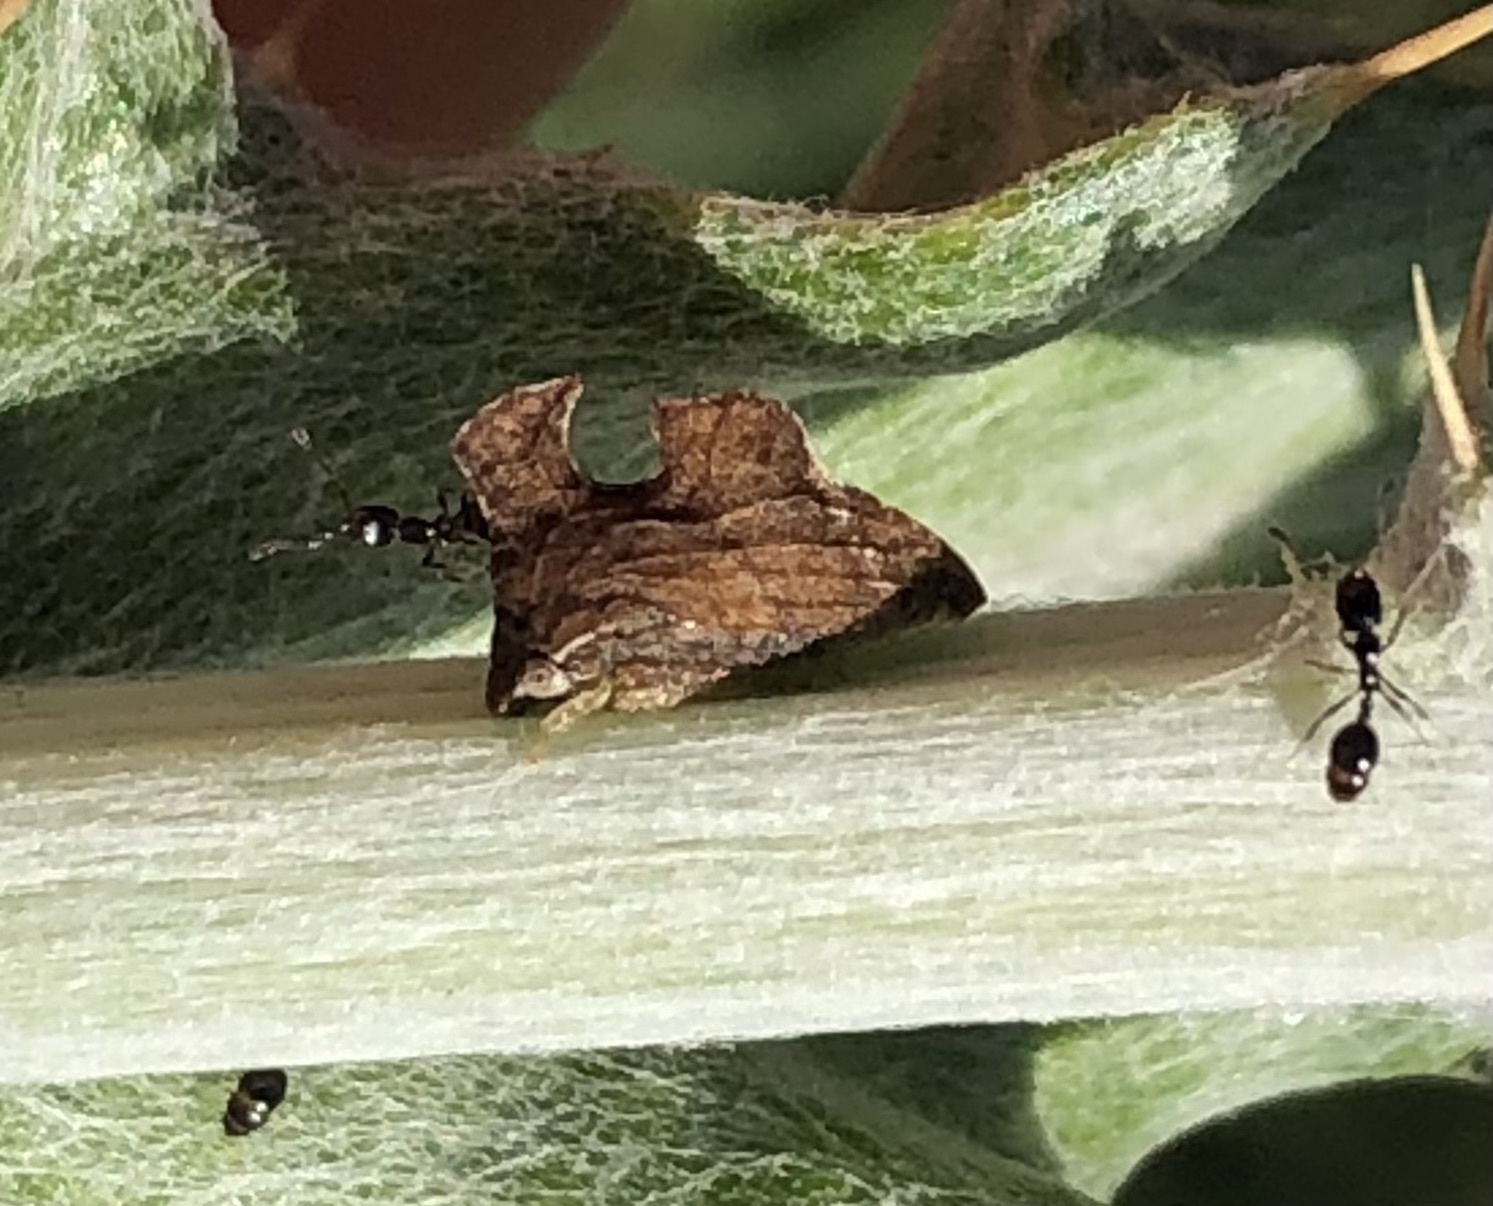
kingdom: Animalia
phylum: Arthropoda
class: Insecta
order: Hemiptera
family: Membracidae
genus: Entylia
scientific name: Entylia carinata
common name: Keeled treehopper
